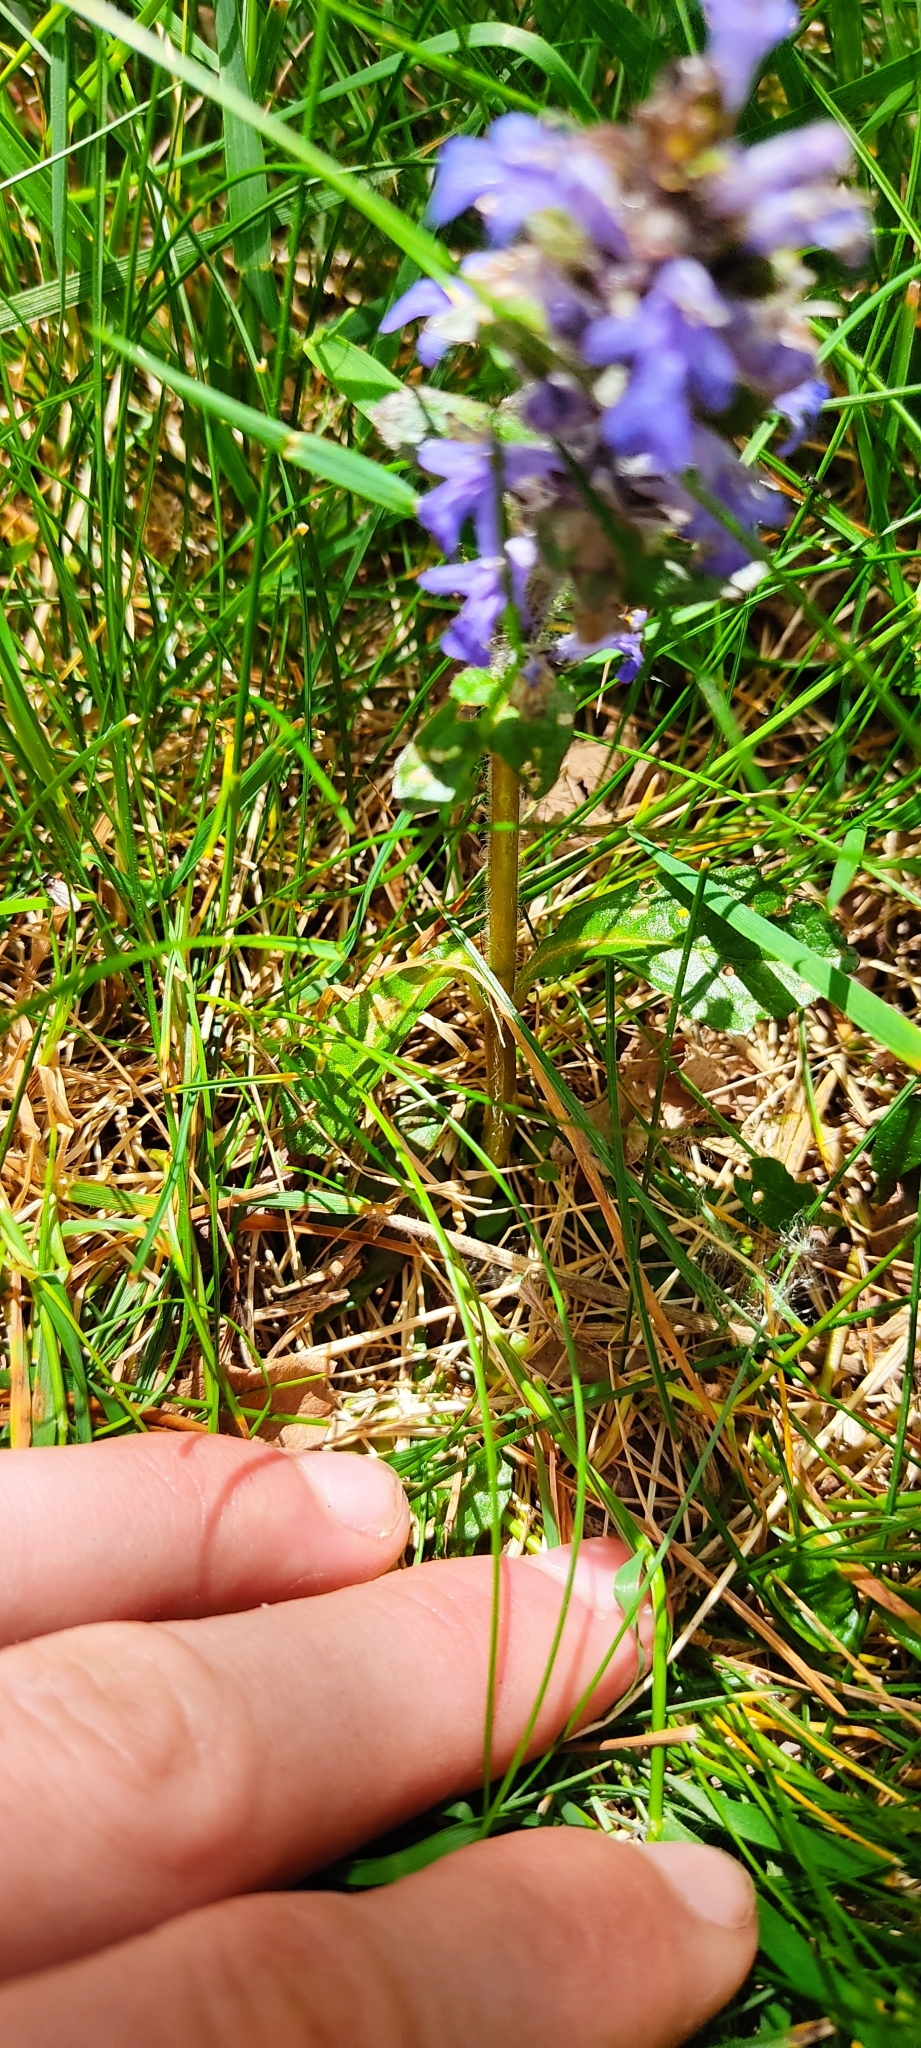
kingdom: Plantae
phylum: Tracheophyta
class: Magnoliopsida
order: Lamiales
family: Lamiaceae
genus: Ajuga
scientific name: Ajuga reptans
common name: Bugle
